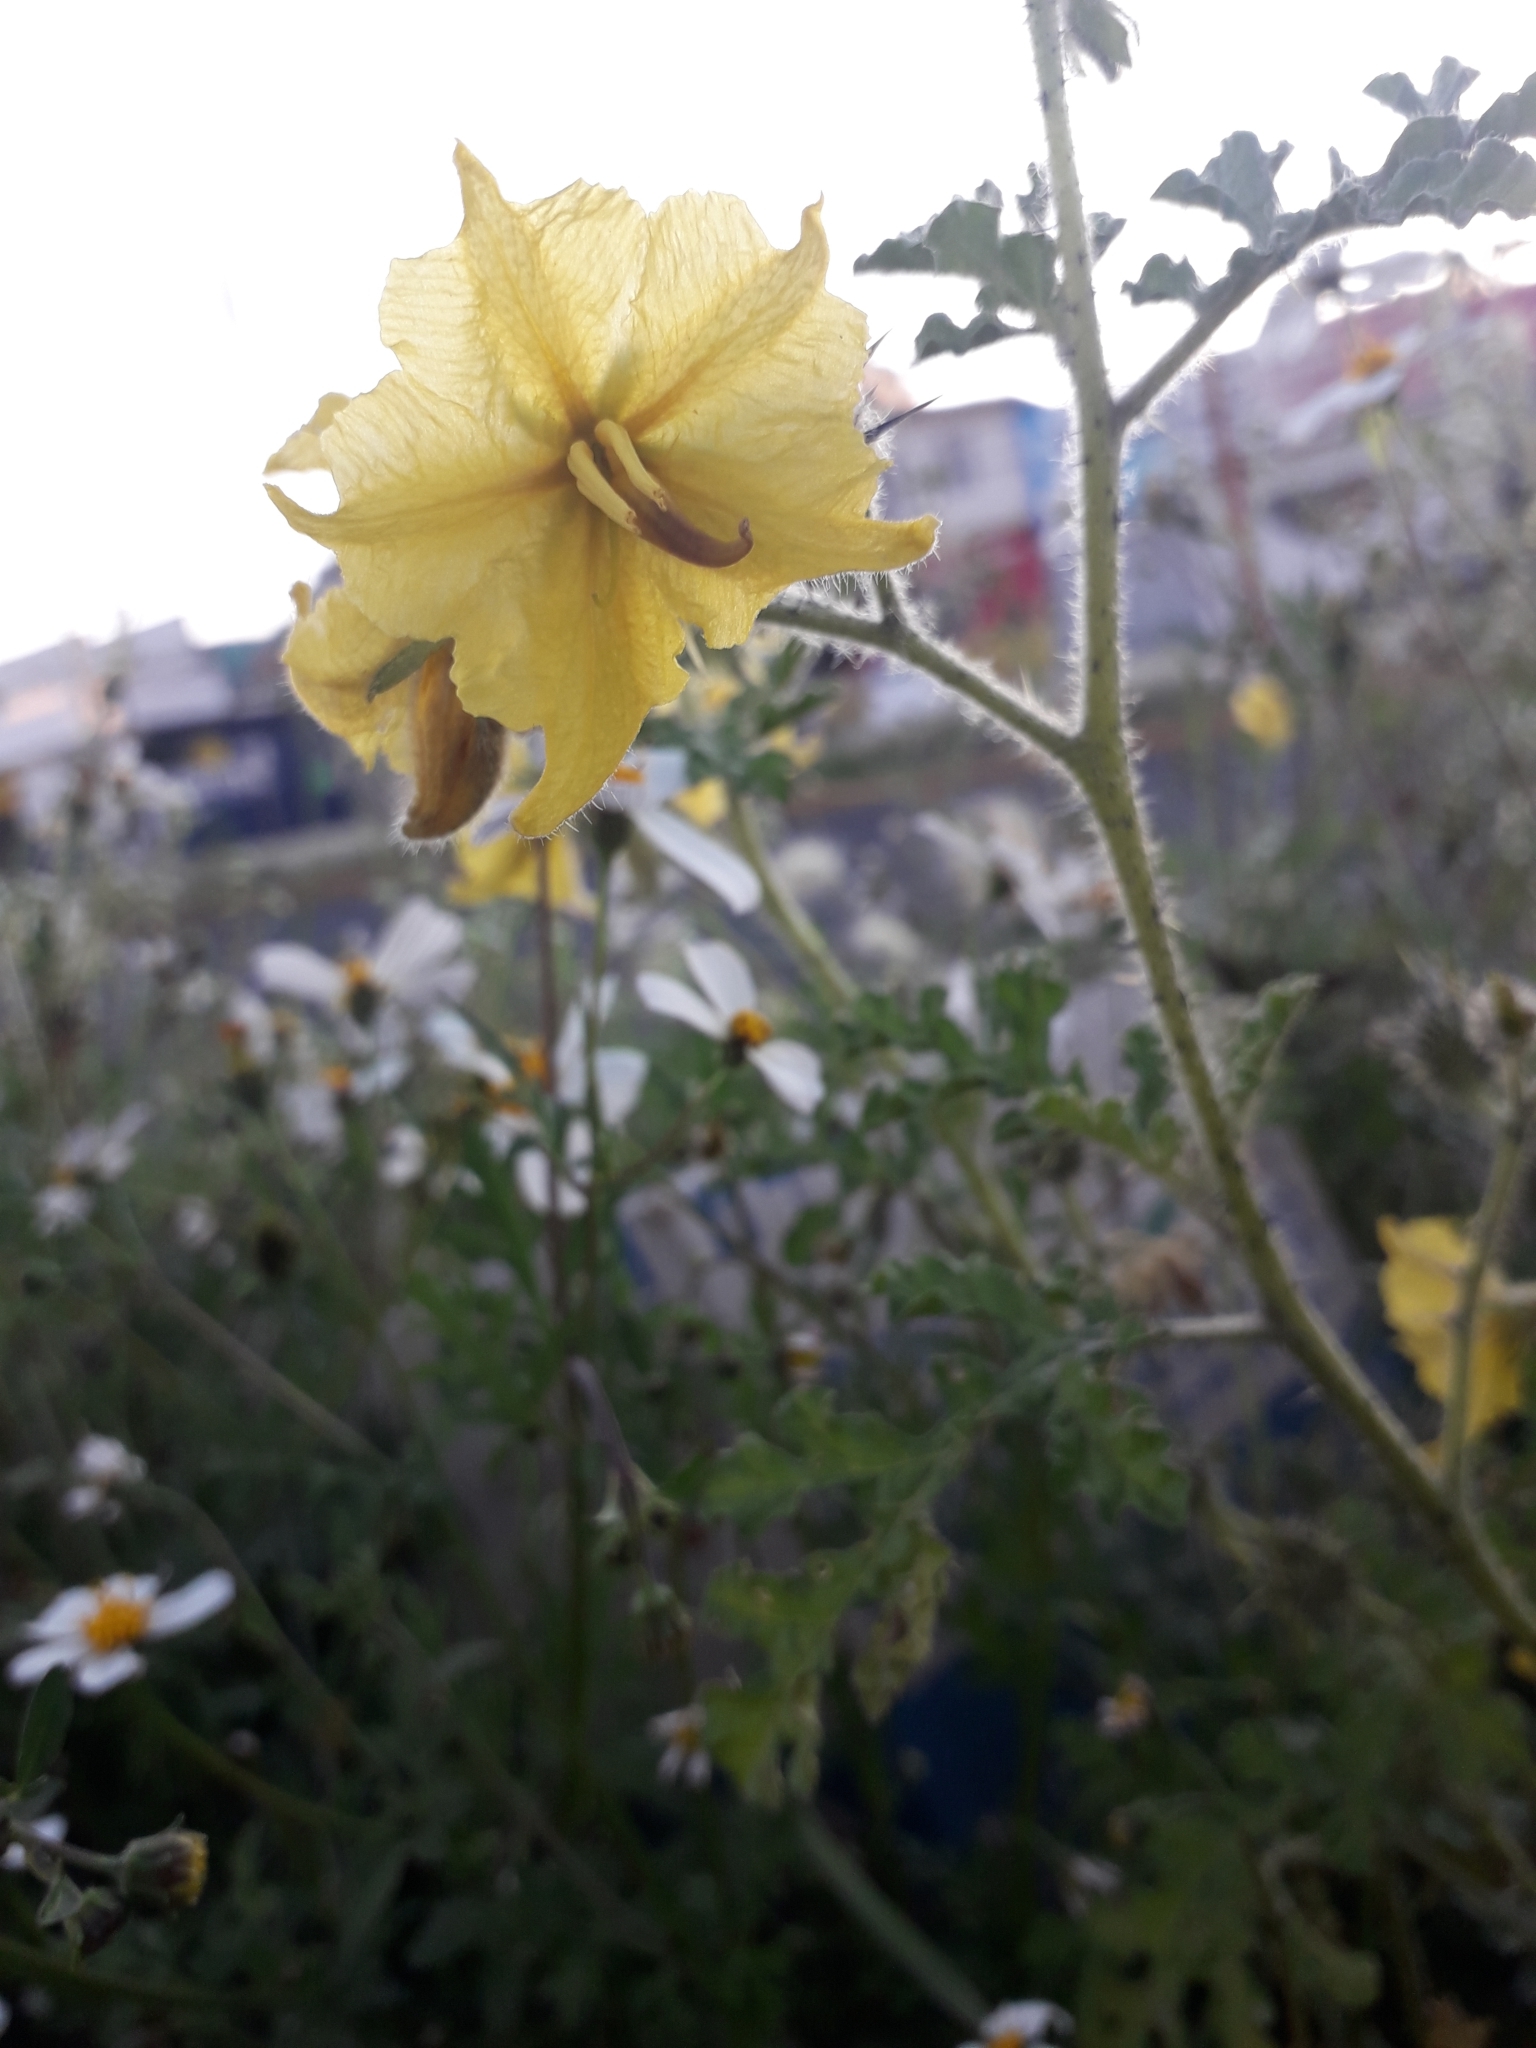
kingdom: Plantae
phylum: Tracheophyta
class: Magnoliopsida
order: Solanales
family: Solanaceae
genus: Solanum
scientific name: Solanum angustifolium
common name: Buffalobur nightshade
